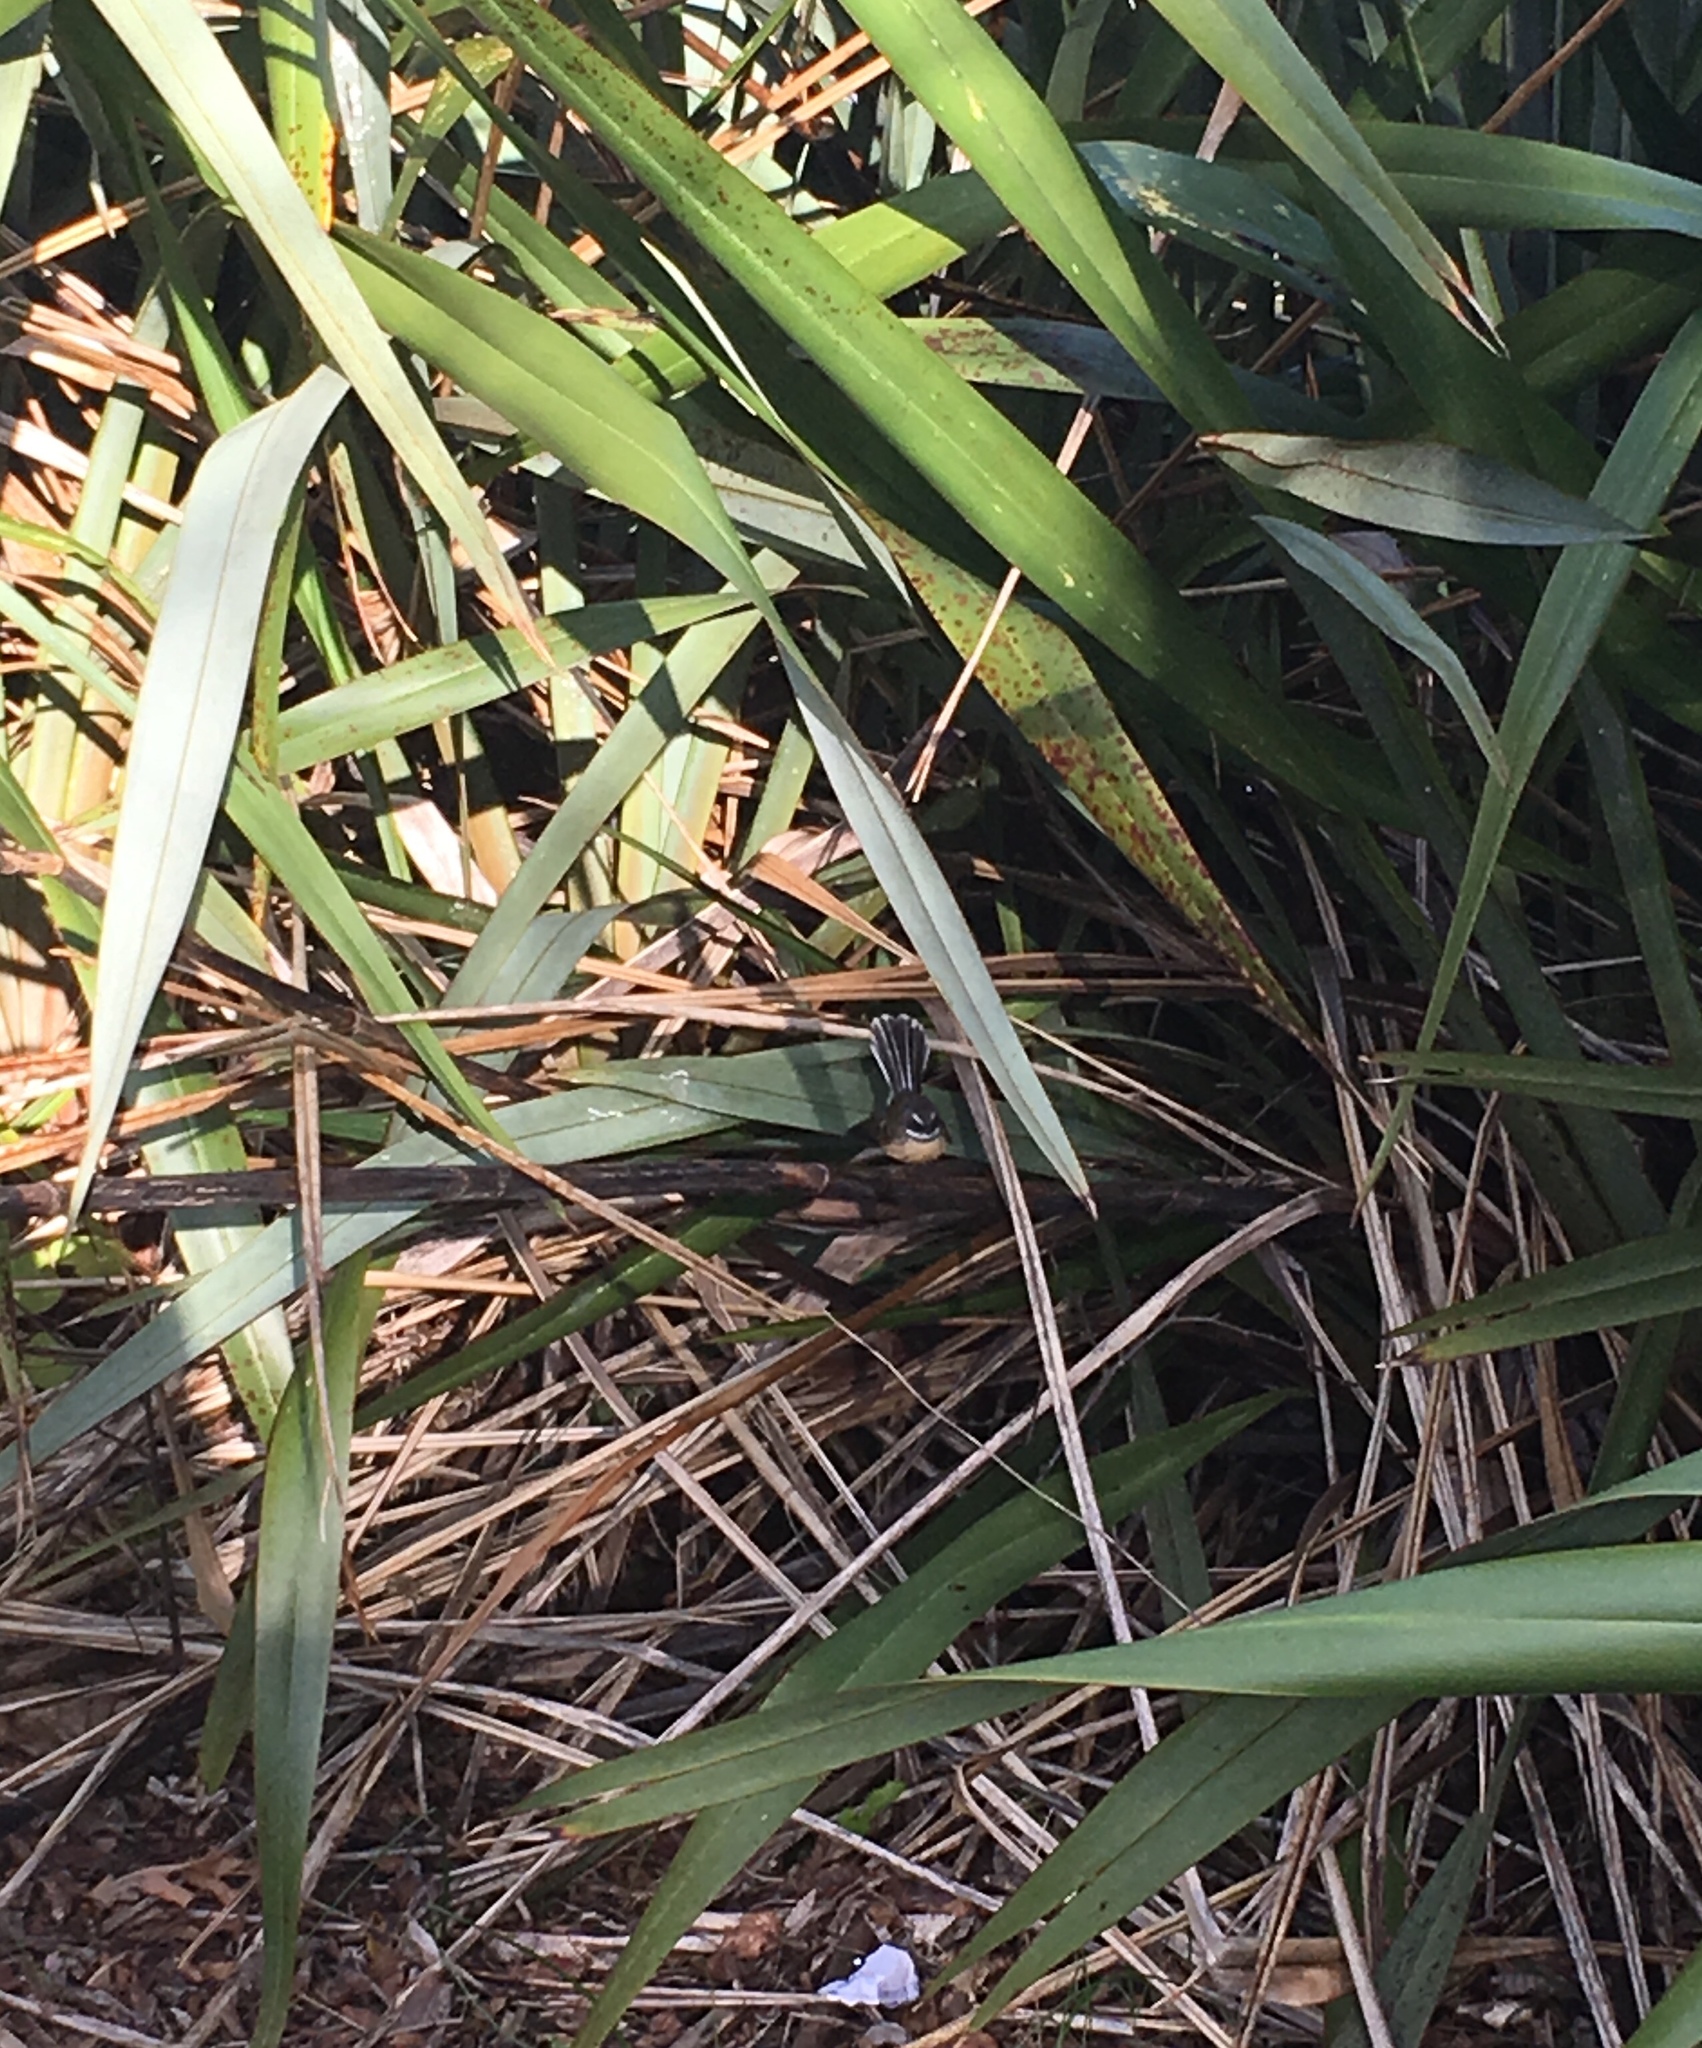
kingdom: Animalia
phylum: Chordata
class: Aves
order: Passeriformes
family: Rhipiduridae
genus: Rhipidura
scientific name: Rhipidura fuliginosa
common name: New zealand fantail
